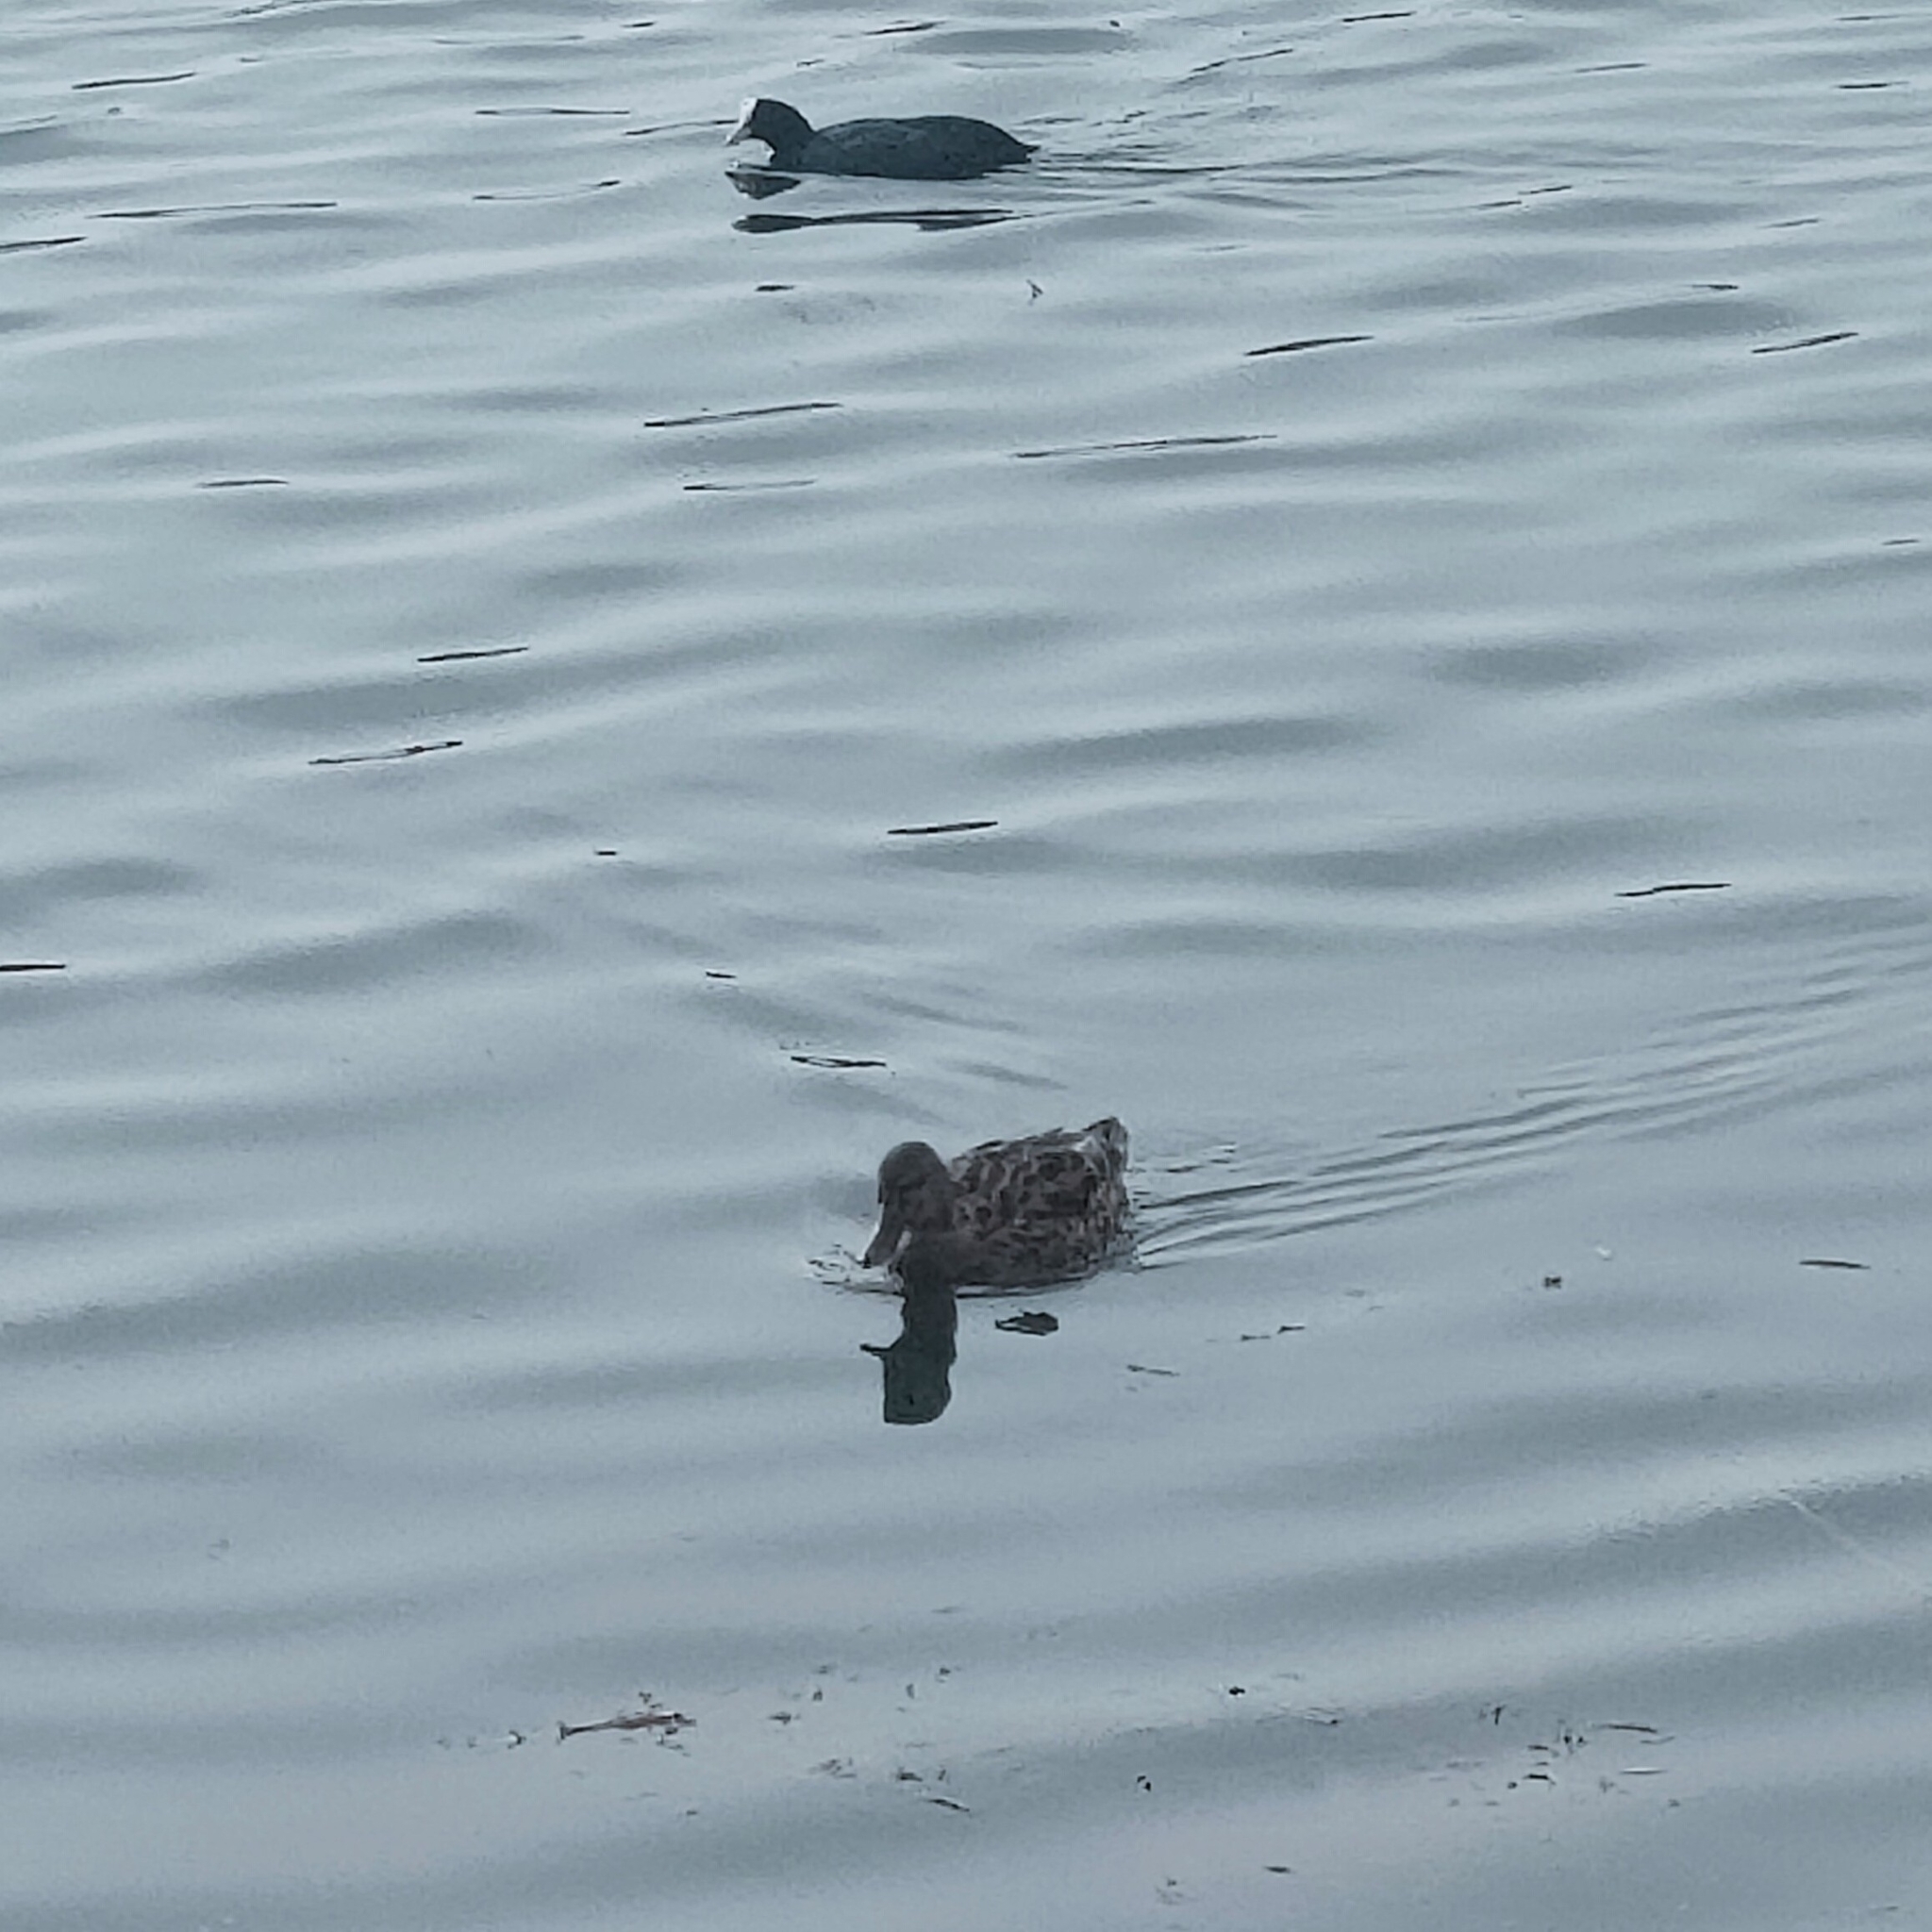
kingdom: Animalia
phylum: Chordata
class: Aves
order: Anseriformes
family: Anatidae
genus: Anas
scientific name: Anas platyrhynchos
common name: Mallard
